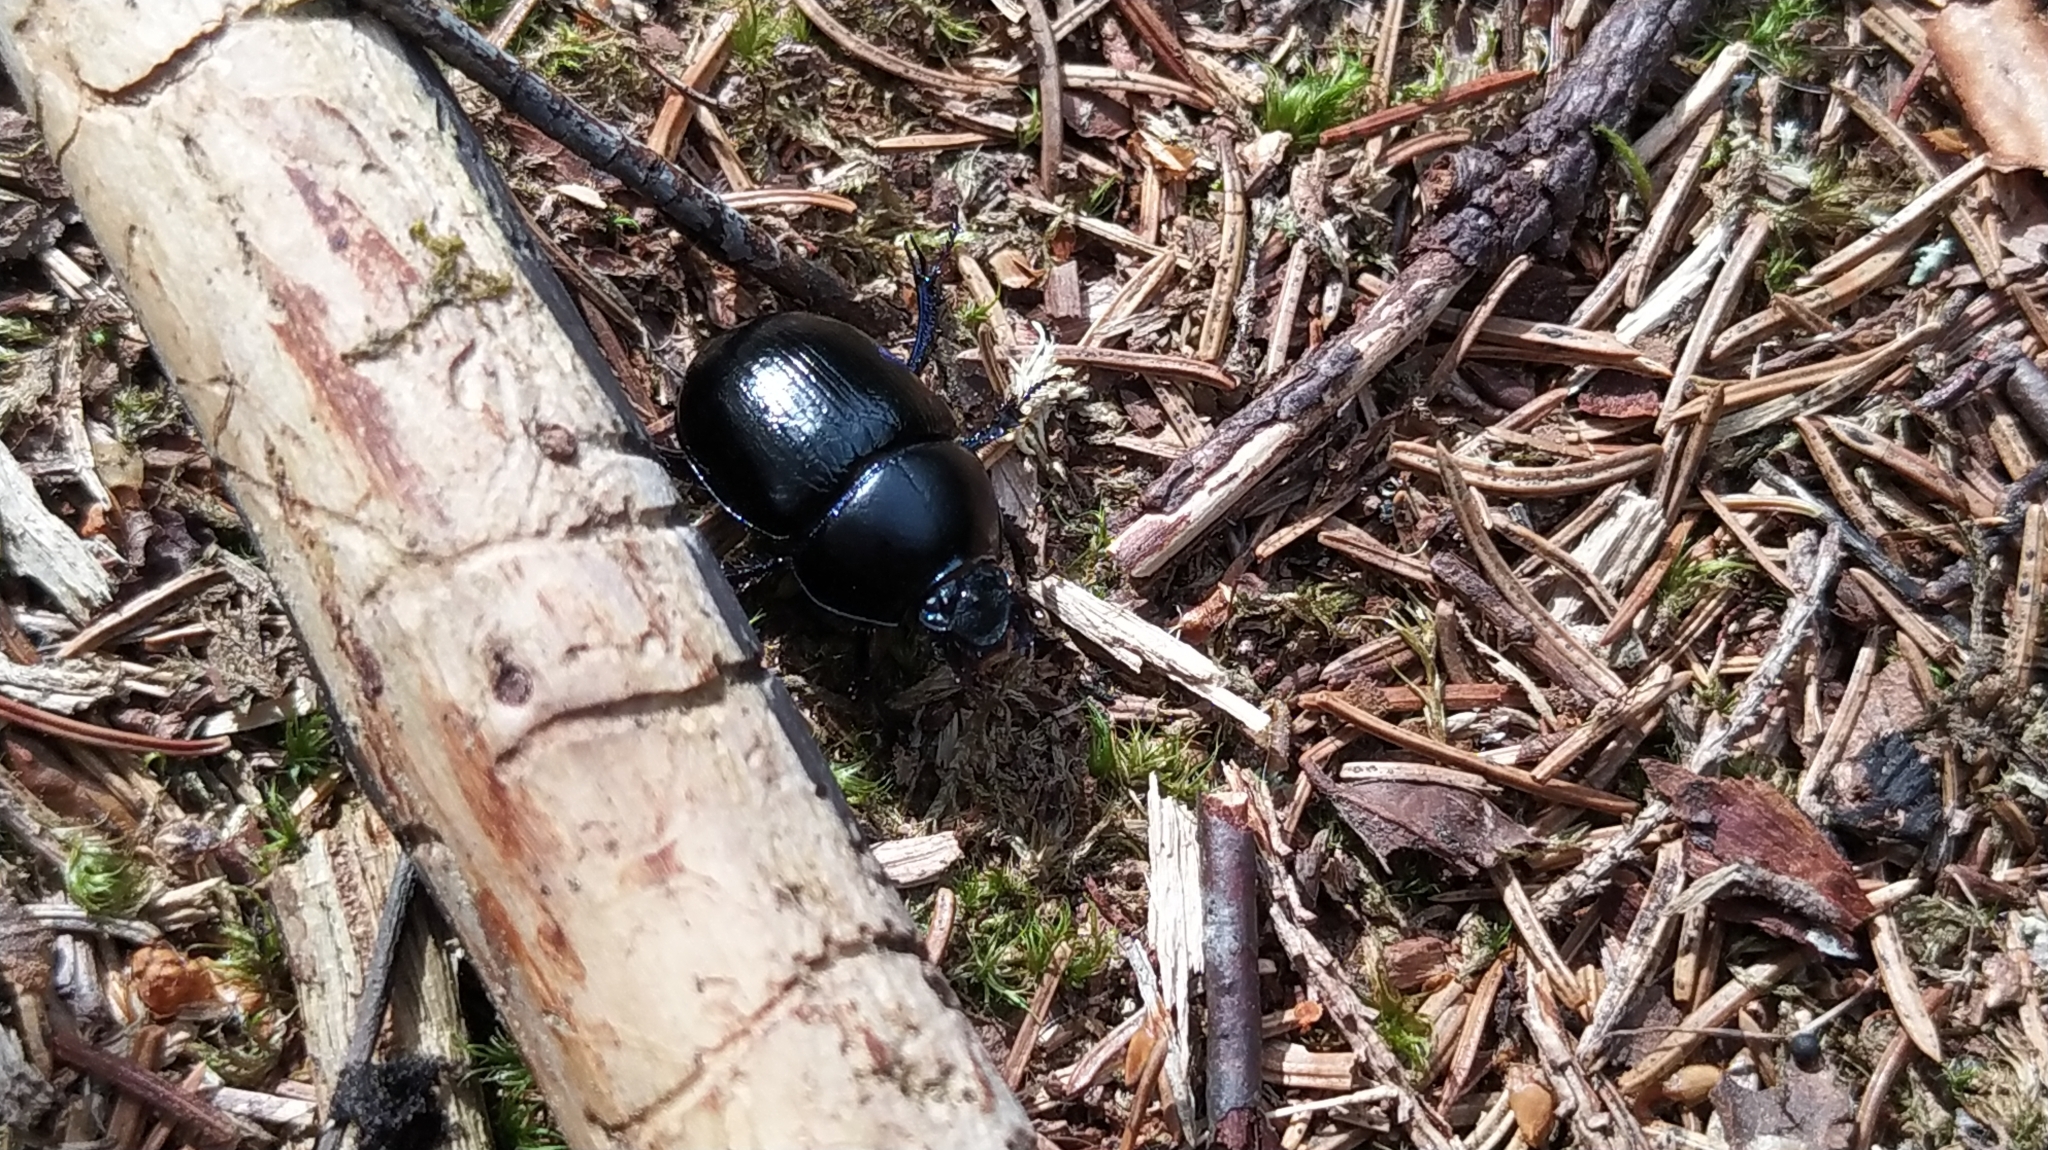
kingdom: Animalia
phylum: Arthropoda
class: Insecta
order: Coleoptera
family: Geotrupidae
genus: Anoplotrupes
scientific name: Anoplotrupes stercorosus
